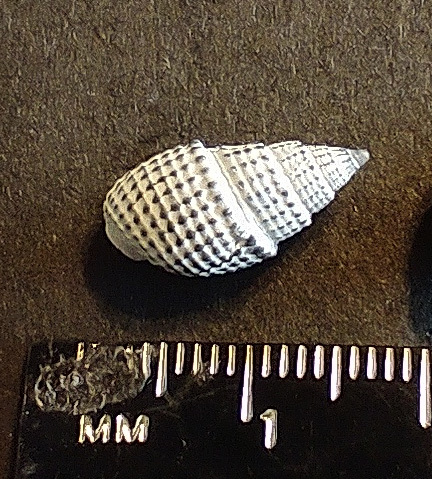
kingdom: Animalia
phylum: Mollusca
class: Gastropoda
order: Neogastropoda
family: Nassariidae
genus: Ilyanassa
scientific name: Ilyanassa trivittata
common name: Three-line mudsnail
